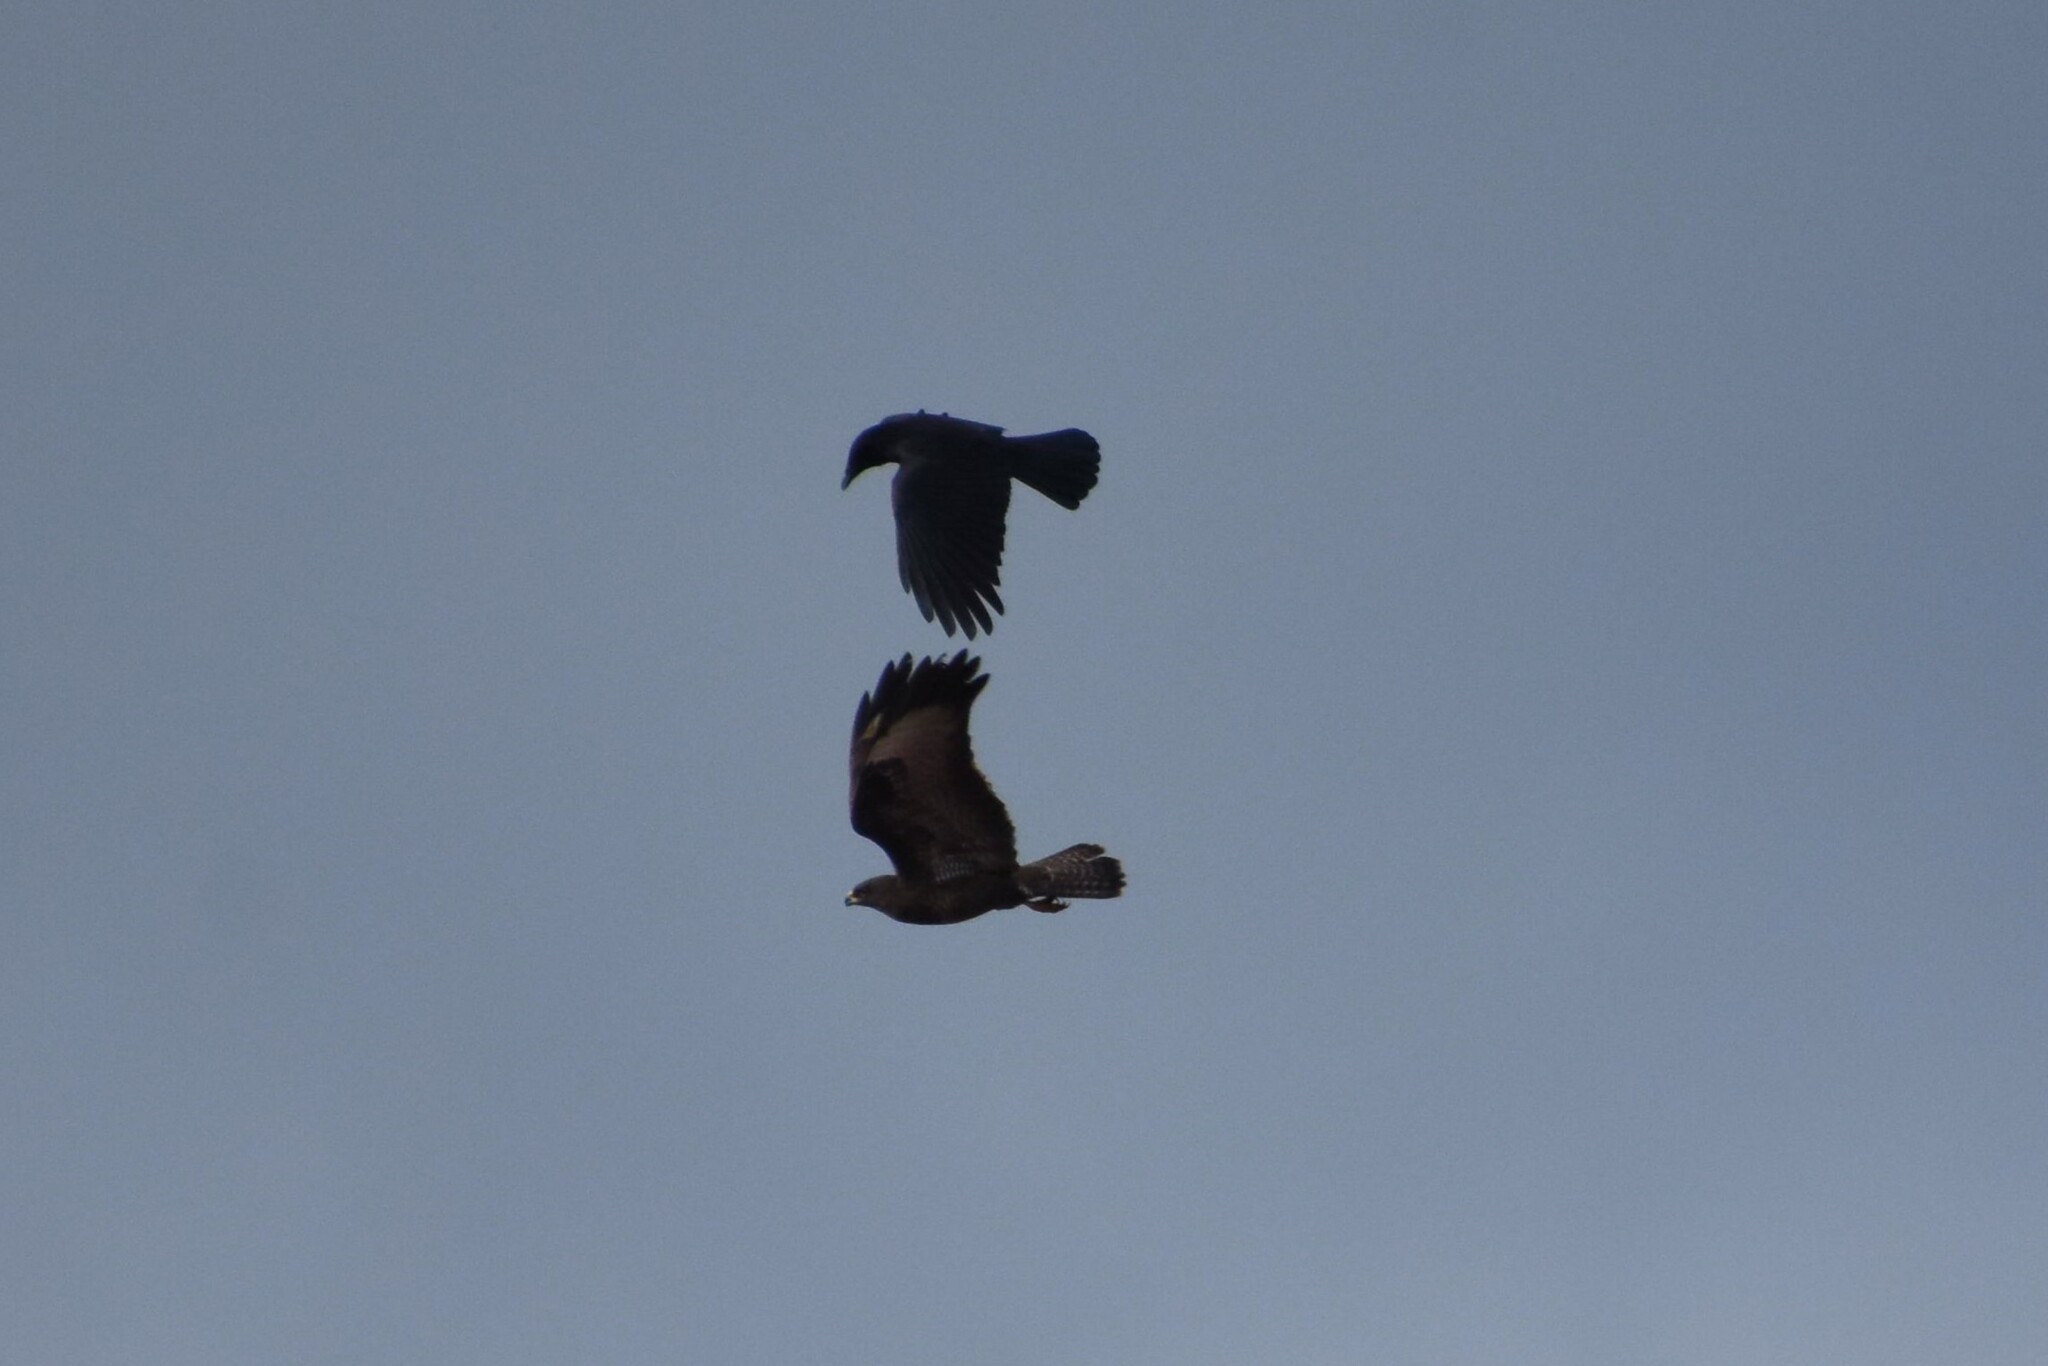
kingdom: Animalia
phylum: Chordata
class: Aves
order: Accipitriformes
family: Accipitridae
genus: Buteo
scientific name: Buteo buteo
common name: Common buzzard
